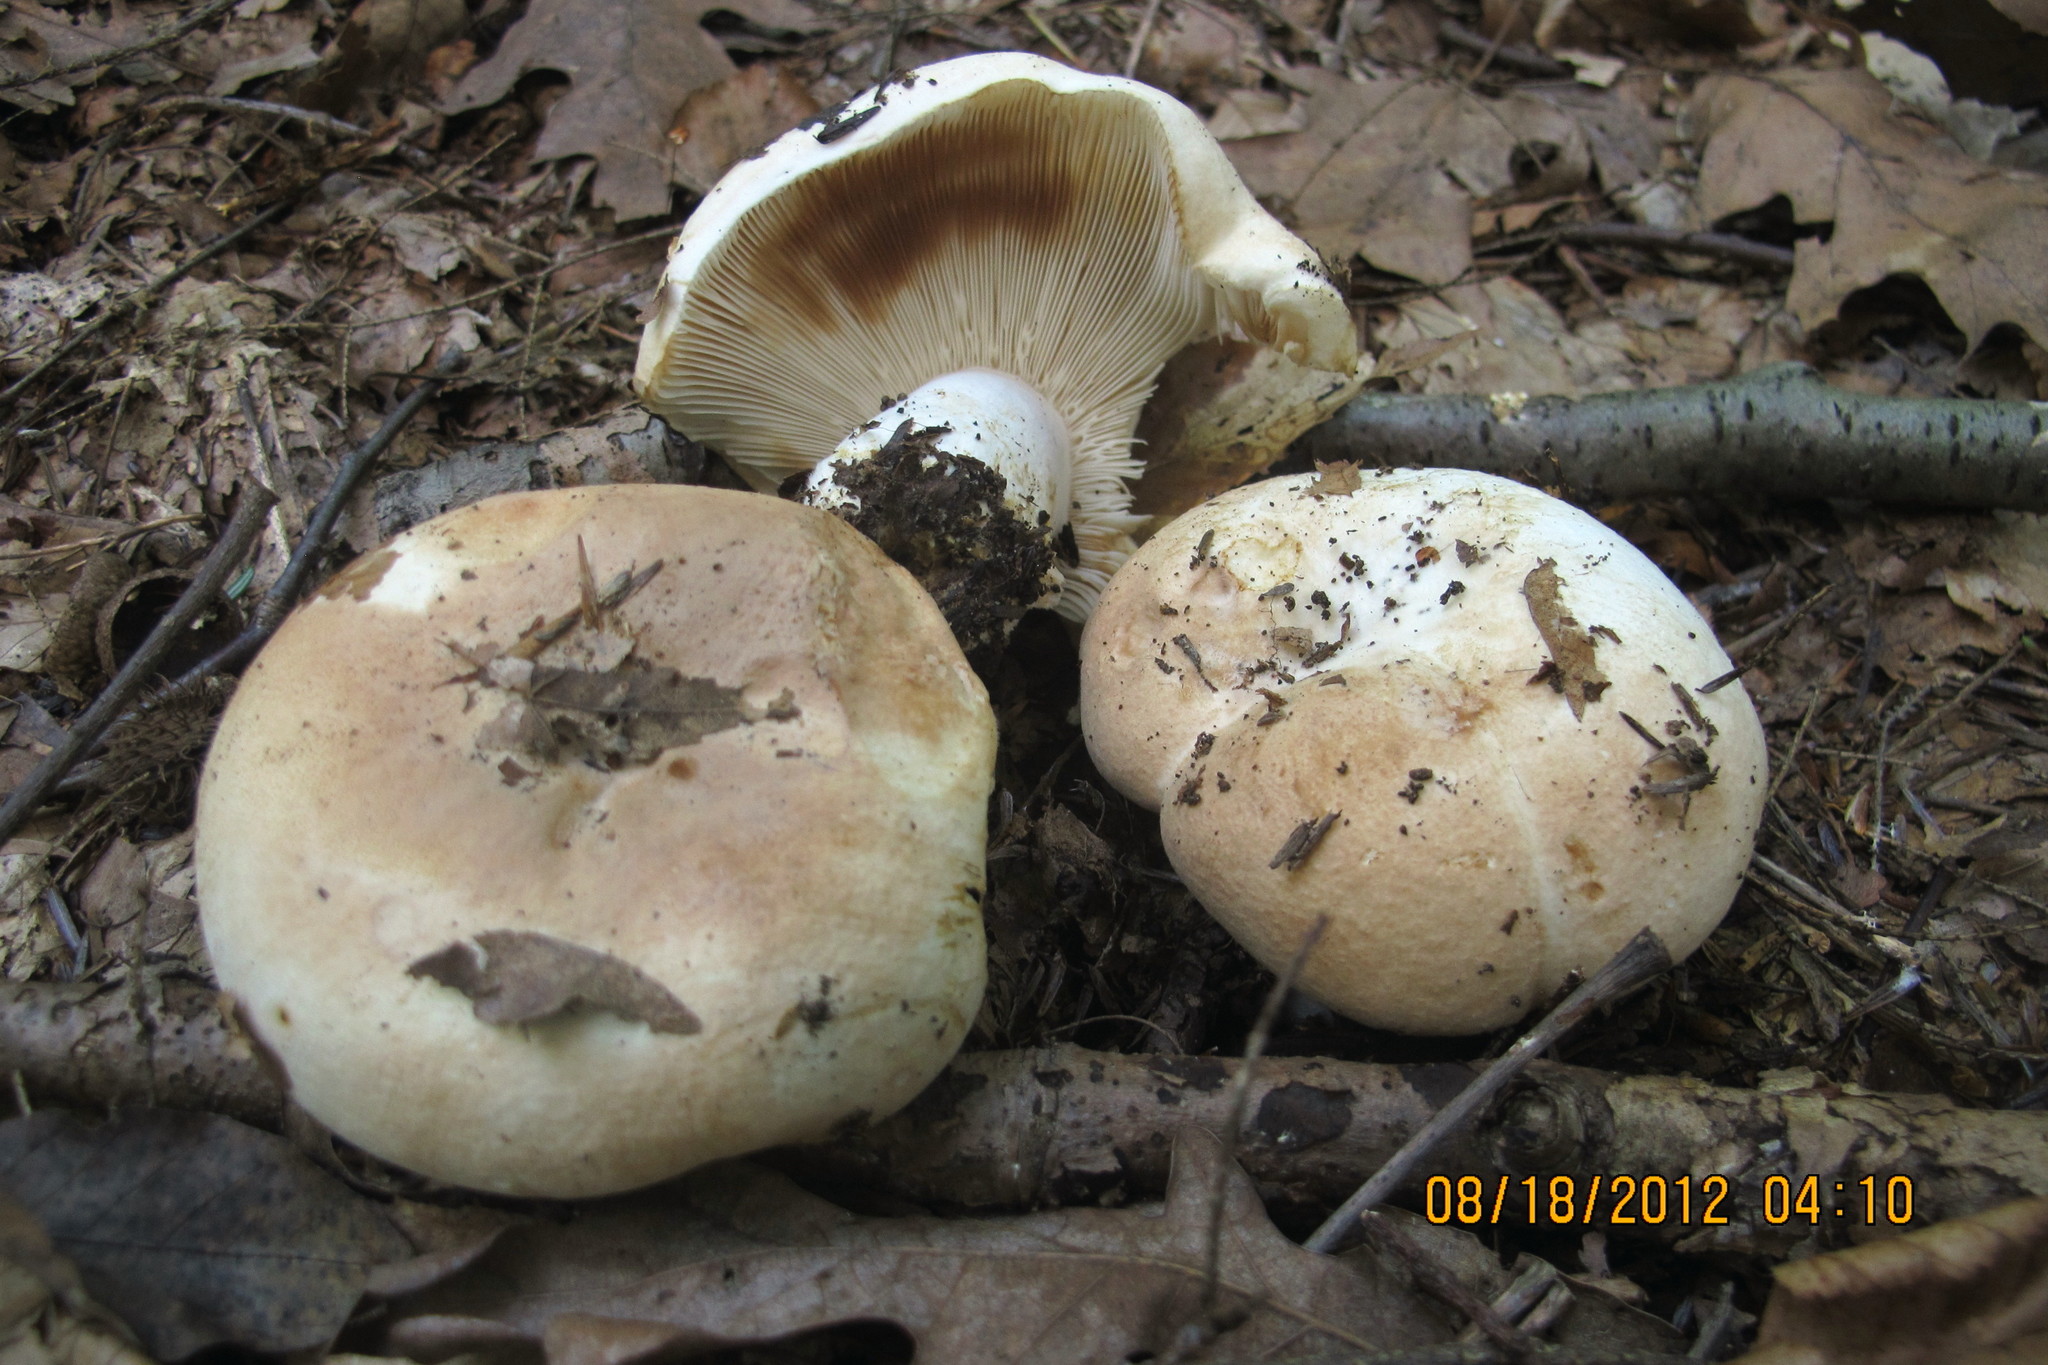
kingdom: Fungi
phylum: Basidiomycota
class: Agaricomycetes
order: Russulales
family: Russulaceae
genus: Russula
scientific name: Russula compacta
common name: Fishbiscuit russula
